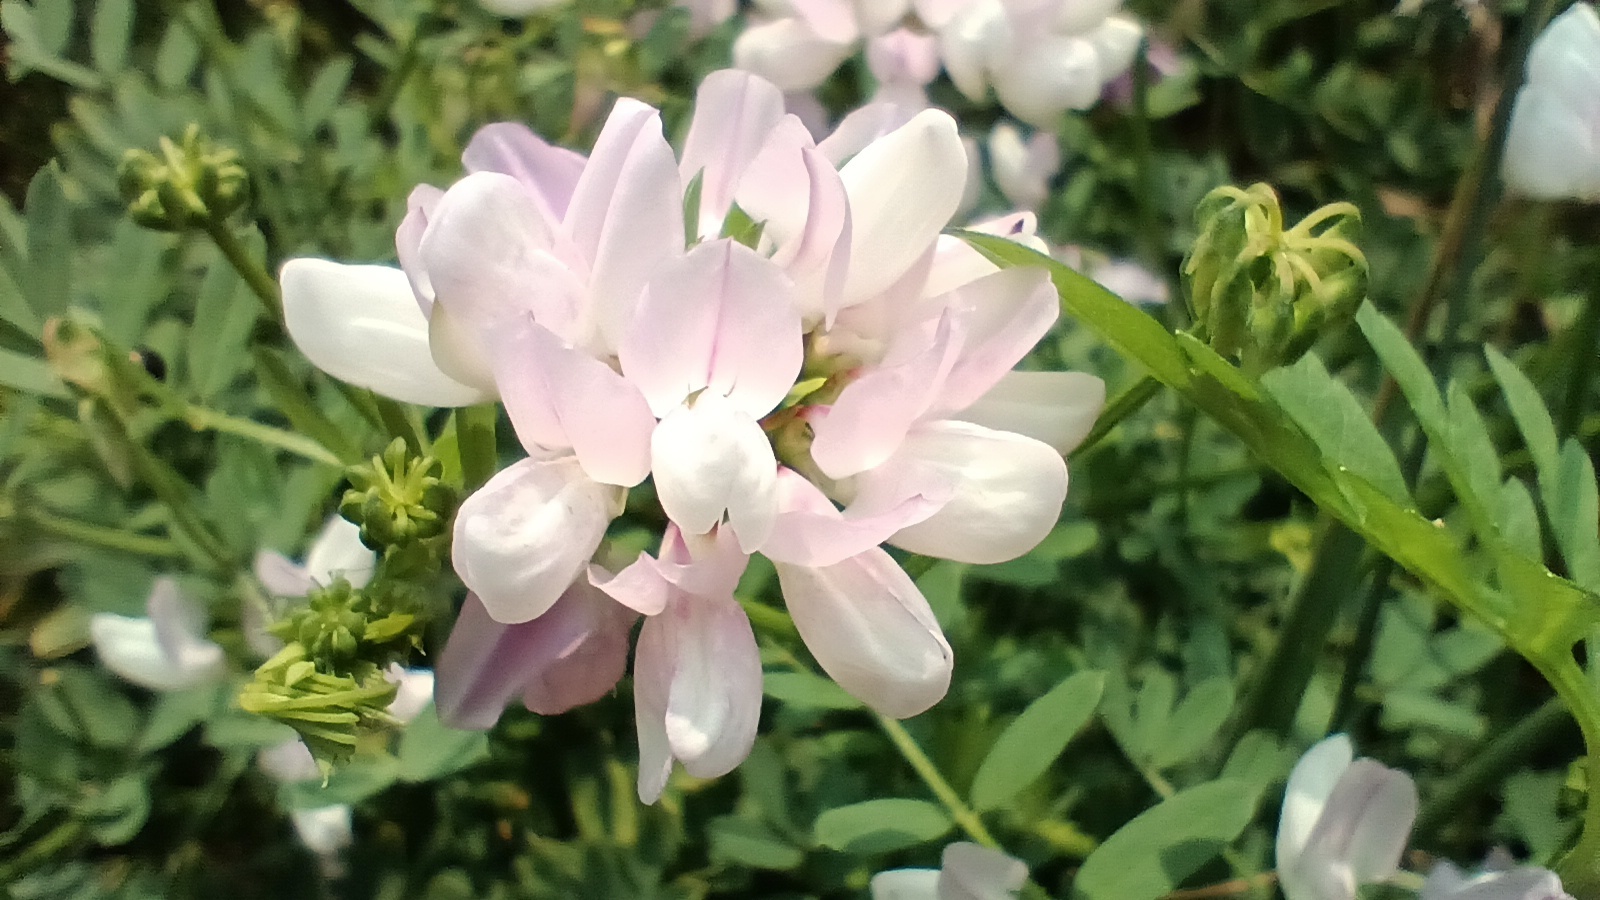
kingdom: Plantae
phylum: Tracheophyta
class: Magnoliopsida
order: Fabales
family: Fabaceae
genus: Coronilla
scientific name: Coronilla varia
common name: Crownvetch
